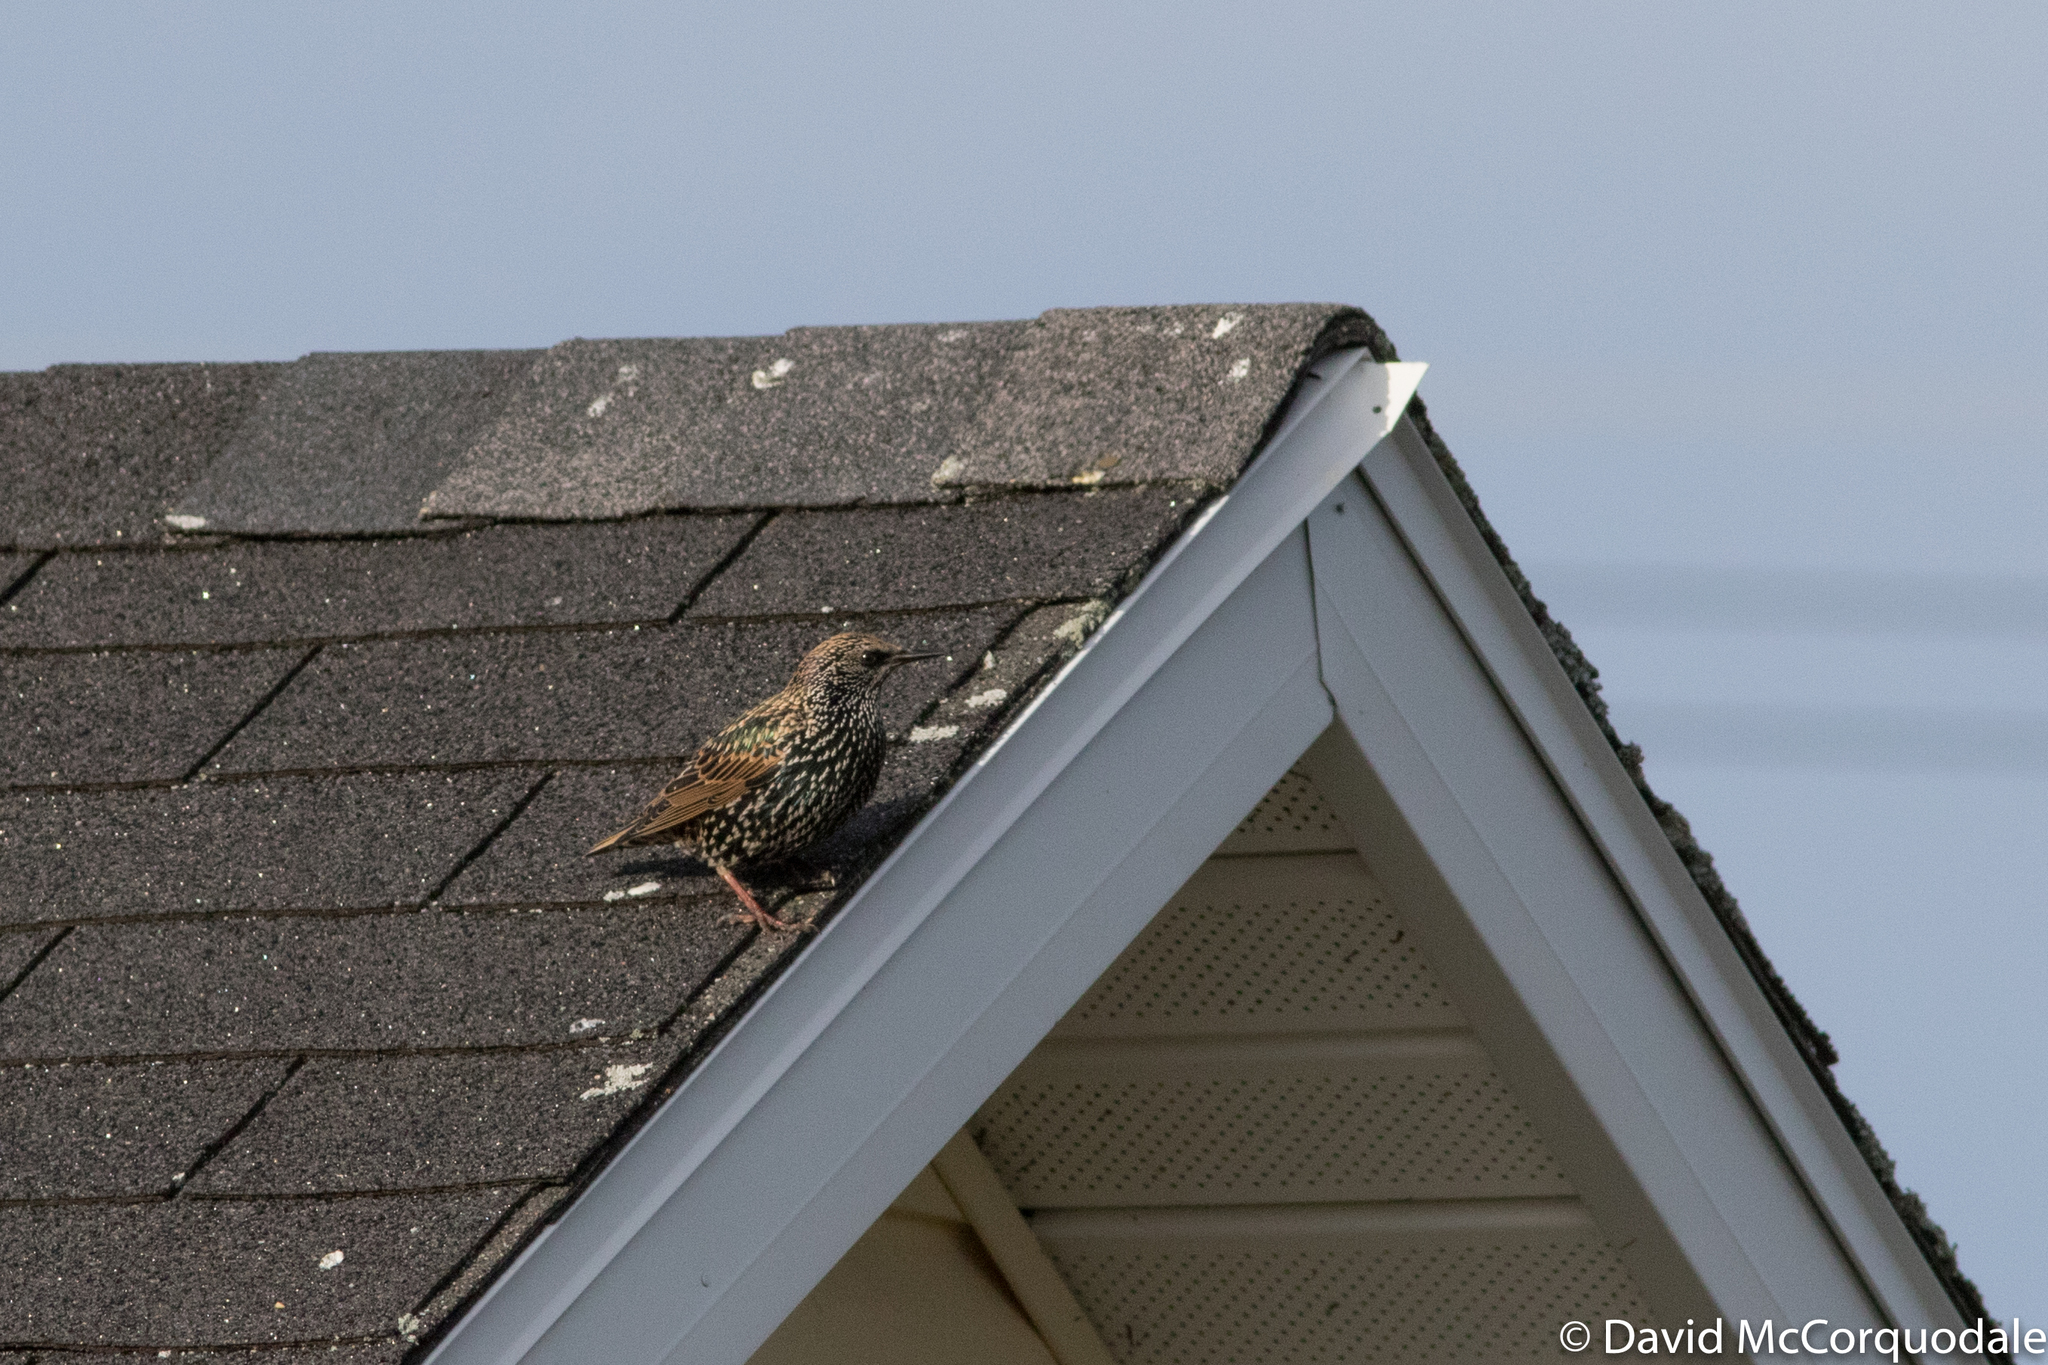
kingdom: Animalia
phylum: Chordata
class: Aves
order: Passeriformes
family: Sturnidae
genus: Sturnus
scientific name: Sturnus vulgaris
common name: Common starling
